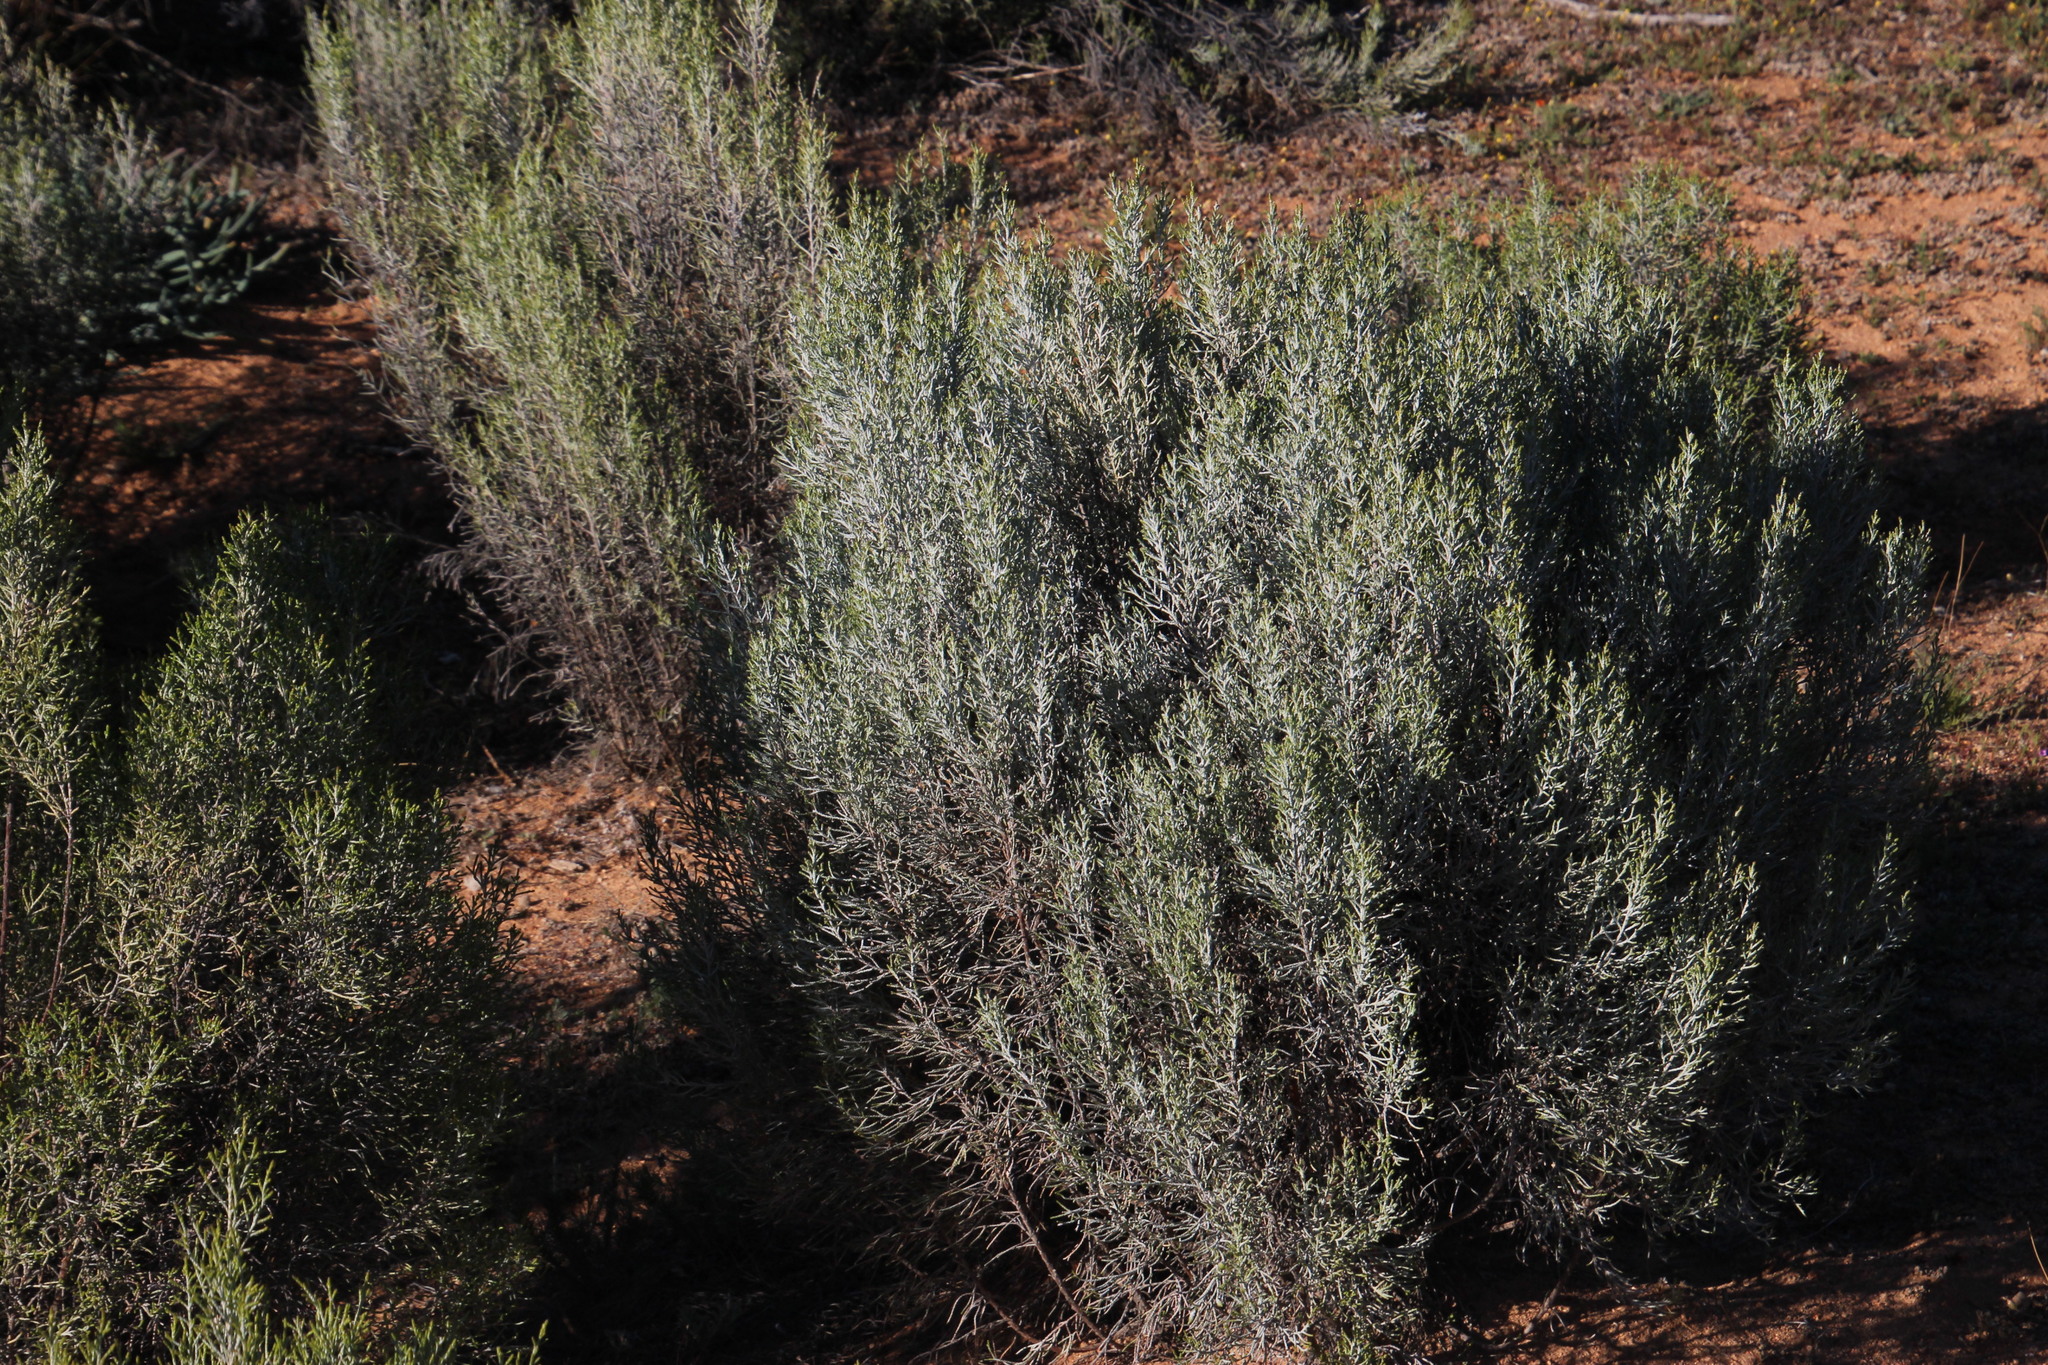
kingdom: Plantae
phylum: Tracheophyta
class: Magnoliopsida
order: Asterales
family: Asteraceae
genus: Dicerothamnus
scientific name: Dicerothamnus rhinocerotis
